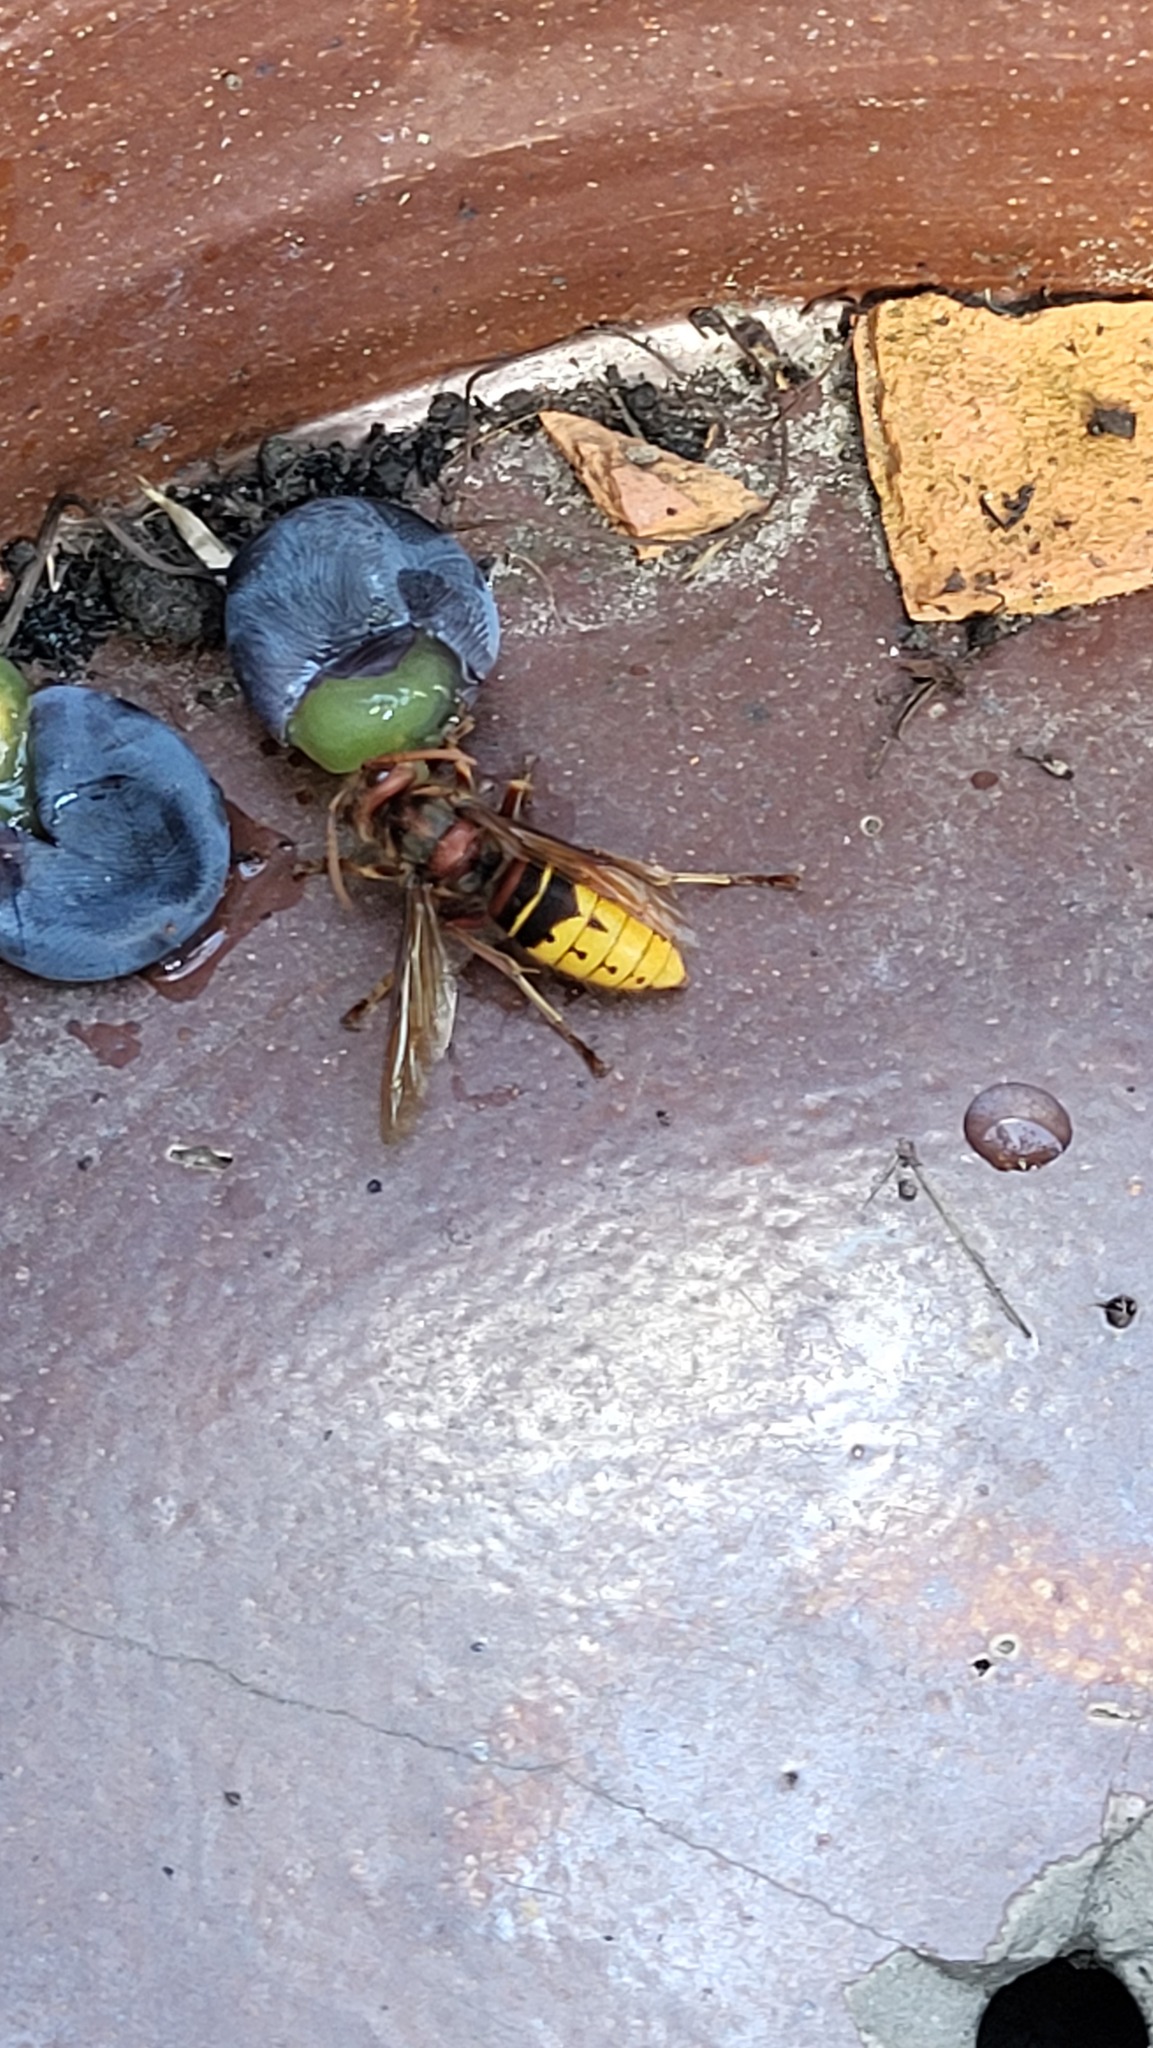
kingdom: Animalia
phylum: Arthropoda
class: Insecta
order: Hymenoptera
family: Vespidae
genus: Vespa
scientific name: Vespa crabro
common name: Hornet
